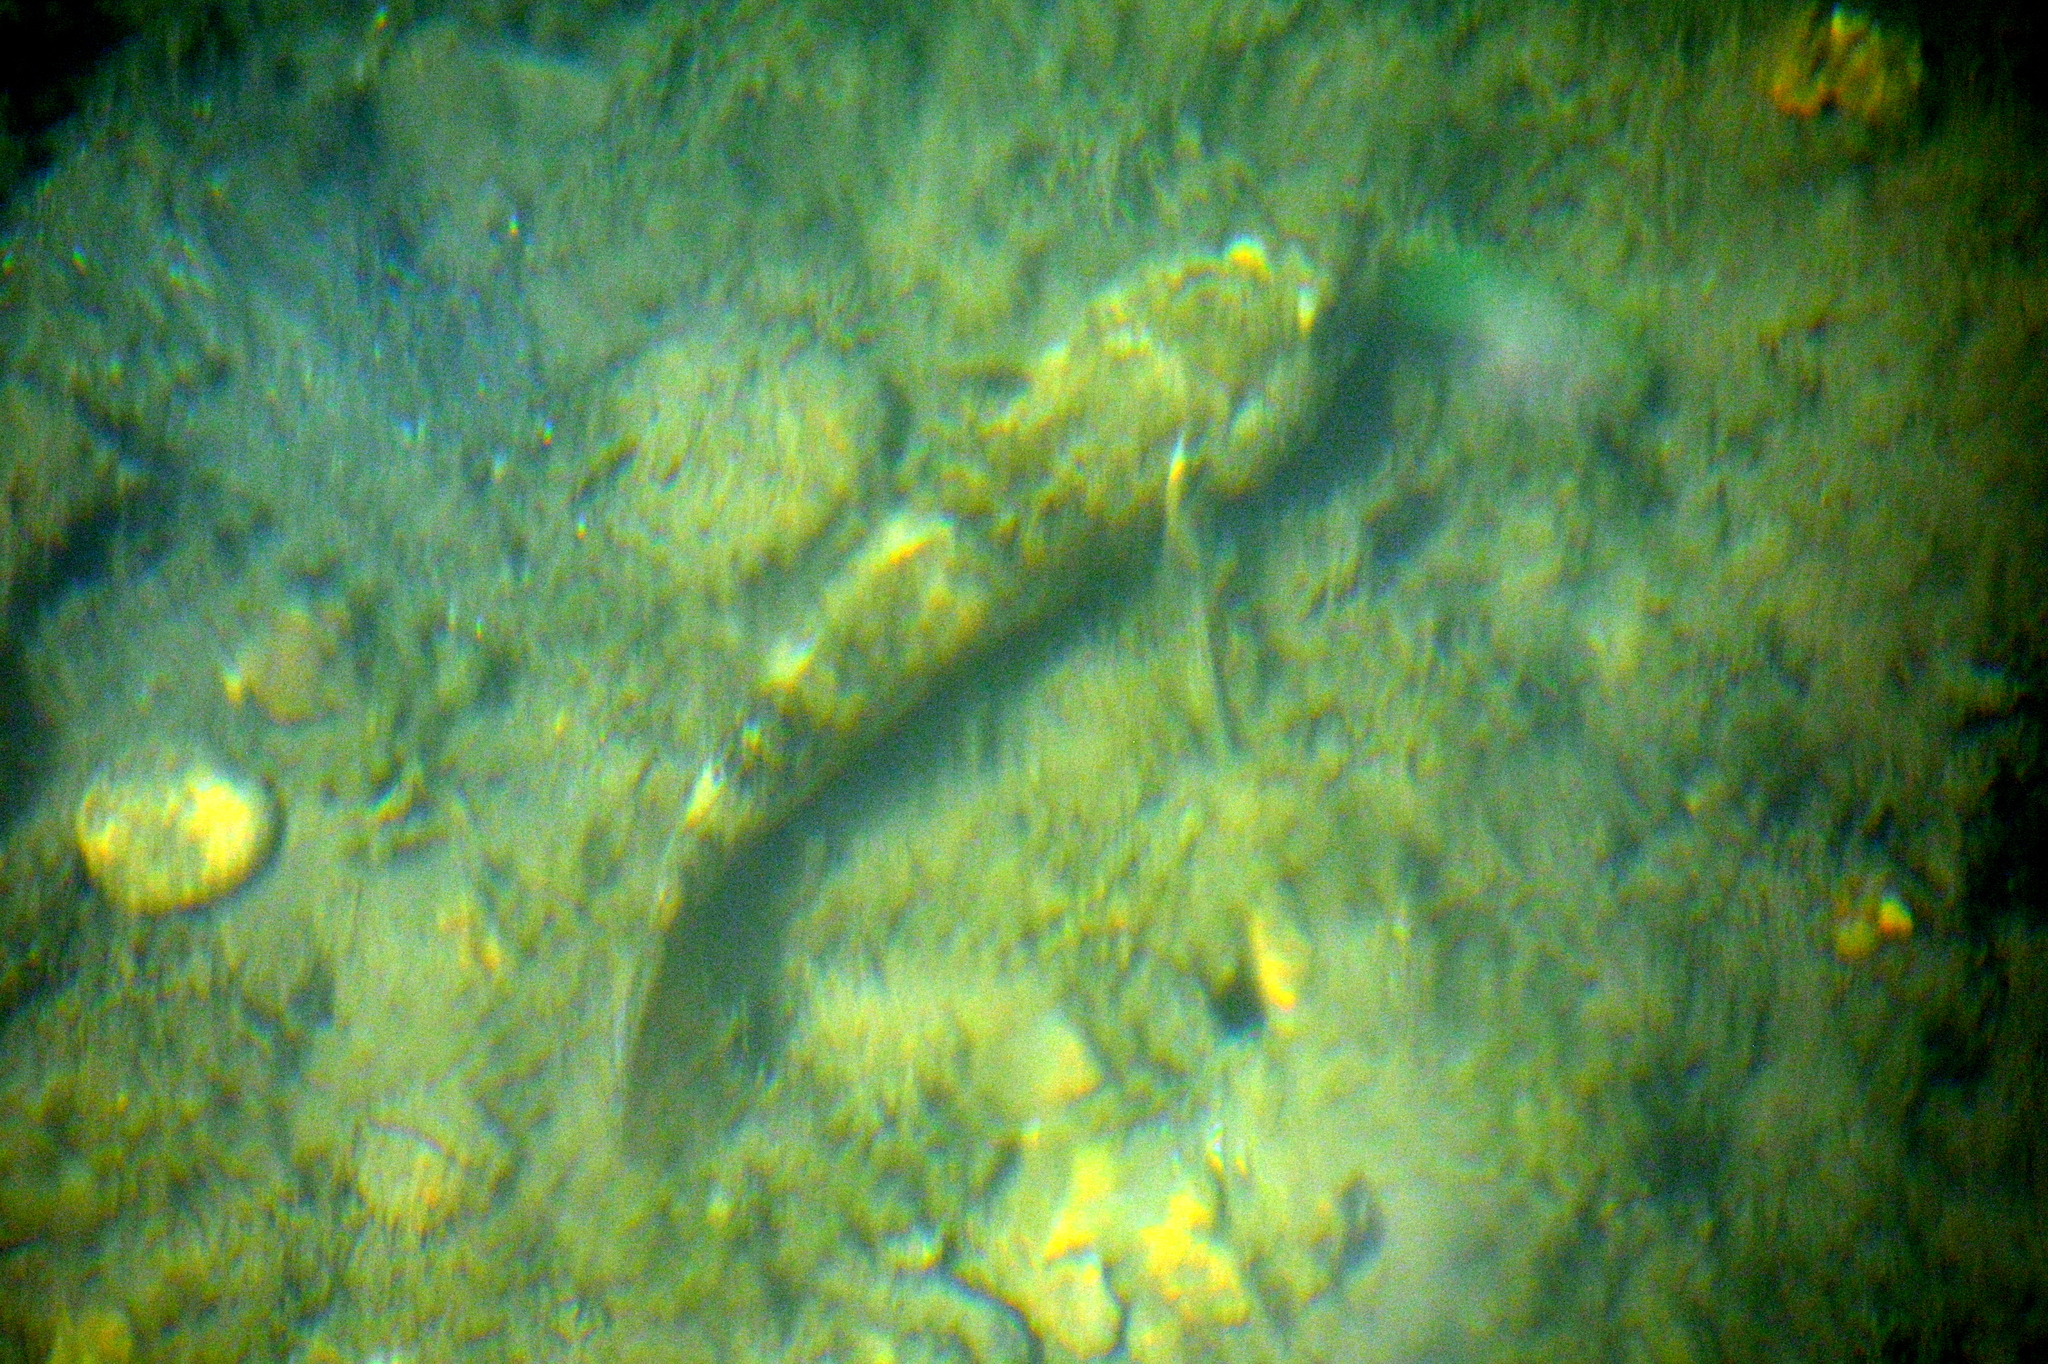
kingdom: Animalia
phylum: Chordata
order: Perciformes
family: Gobiidae
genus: Gobius
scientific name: Gobius cobitis
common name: Giant goby
